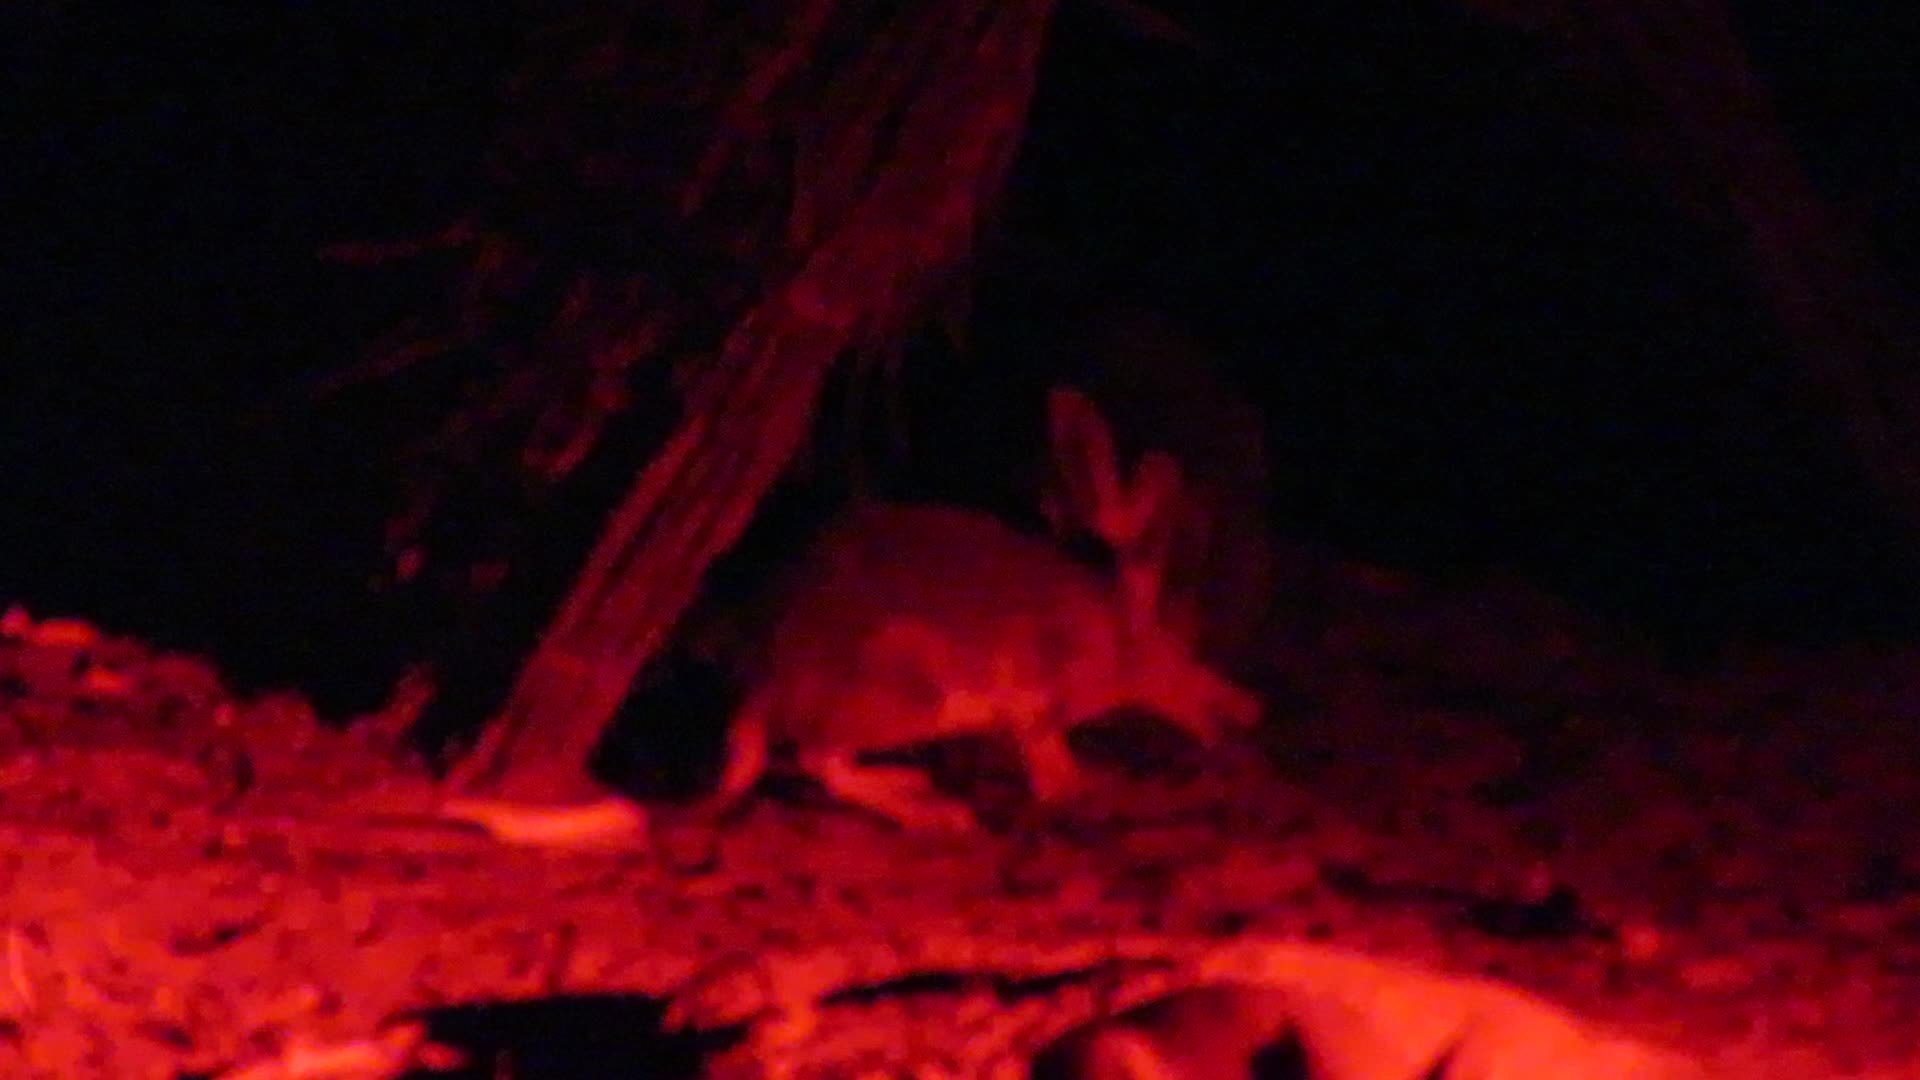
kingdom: Animalia
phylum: Chordata
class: Mammalia
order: Diprotodontia
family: Phalangeridae
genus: Trichosurus
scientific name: Trichosurus vulpecula
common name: Common brushtail
